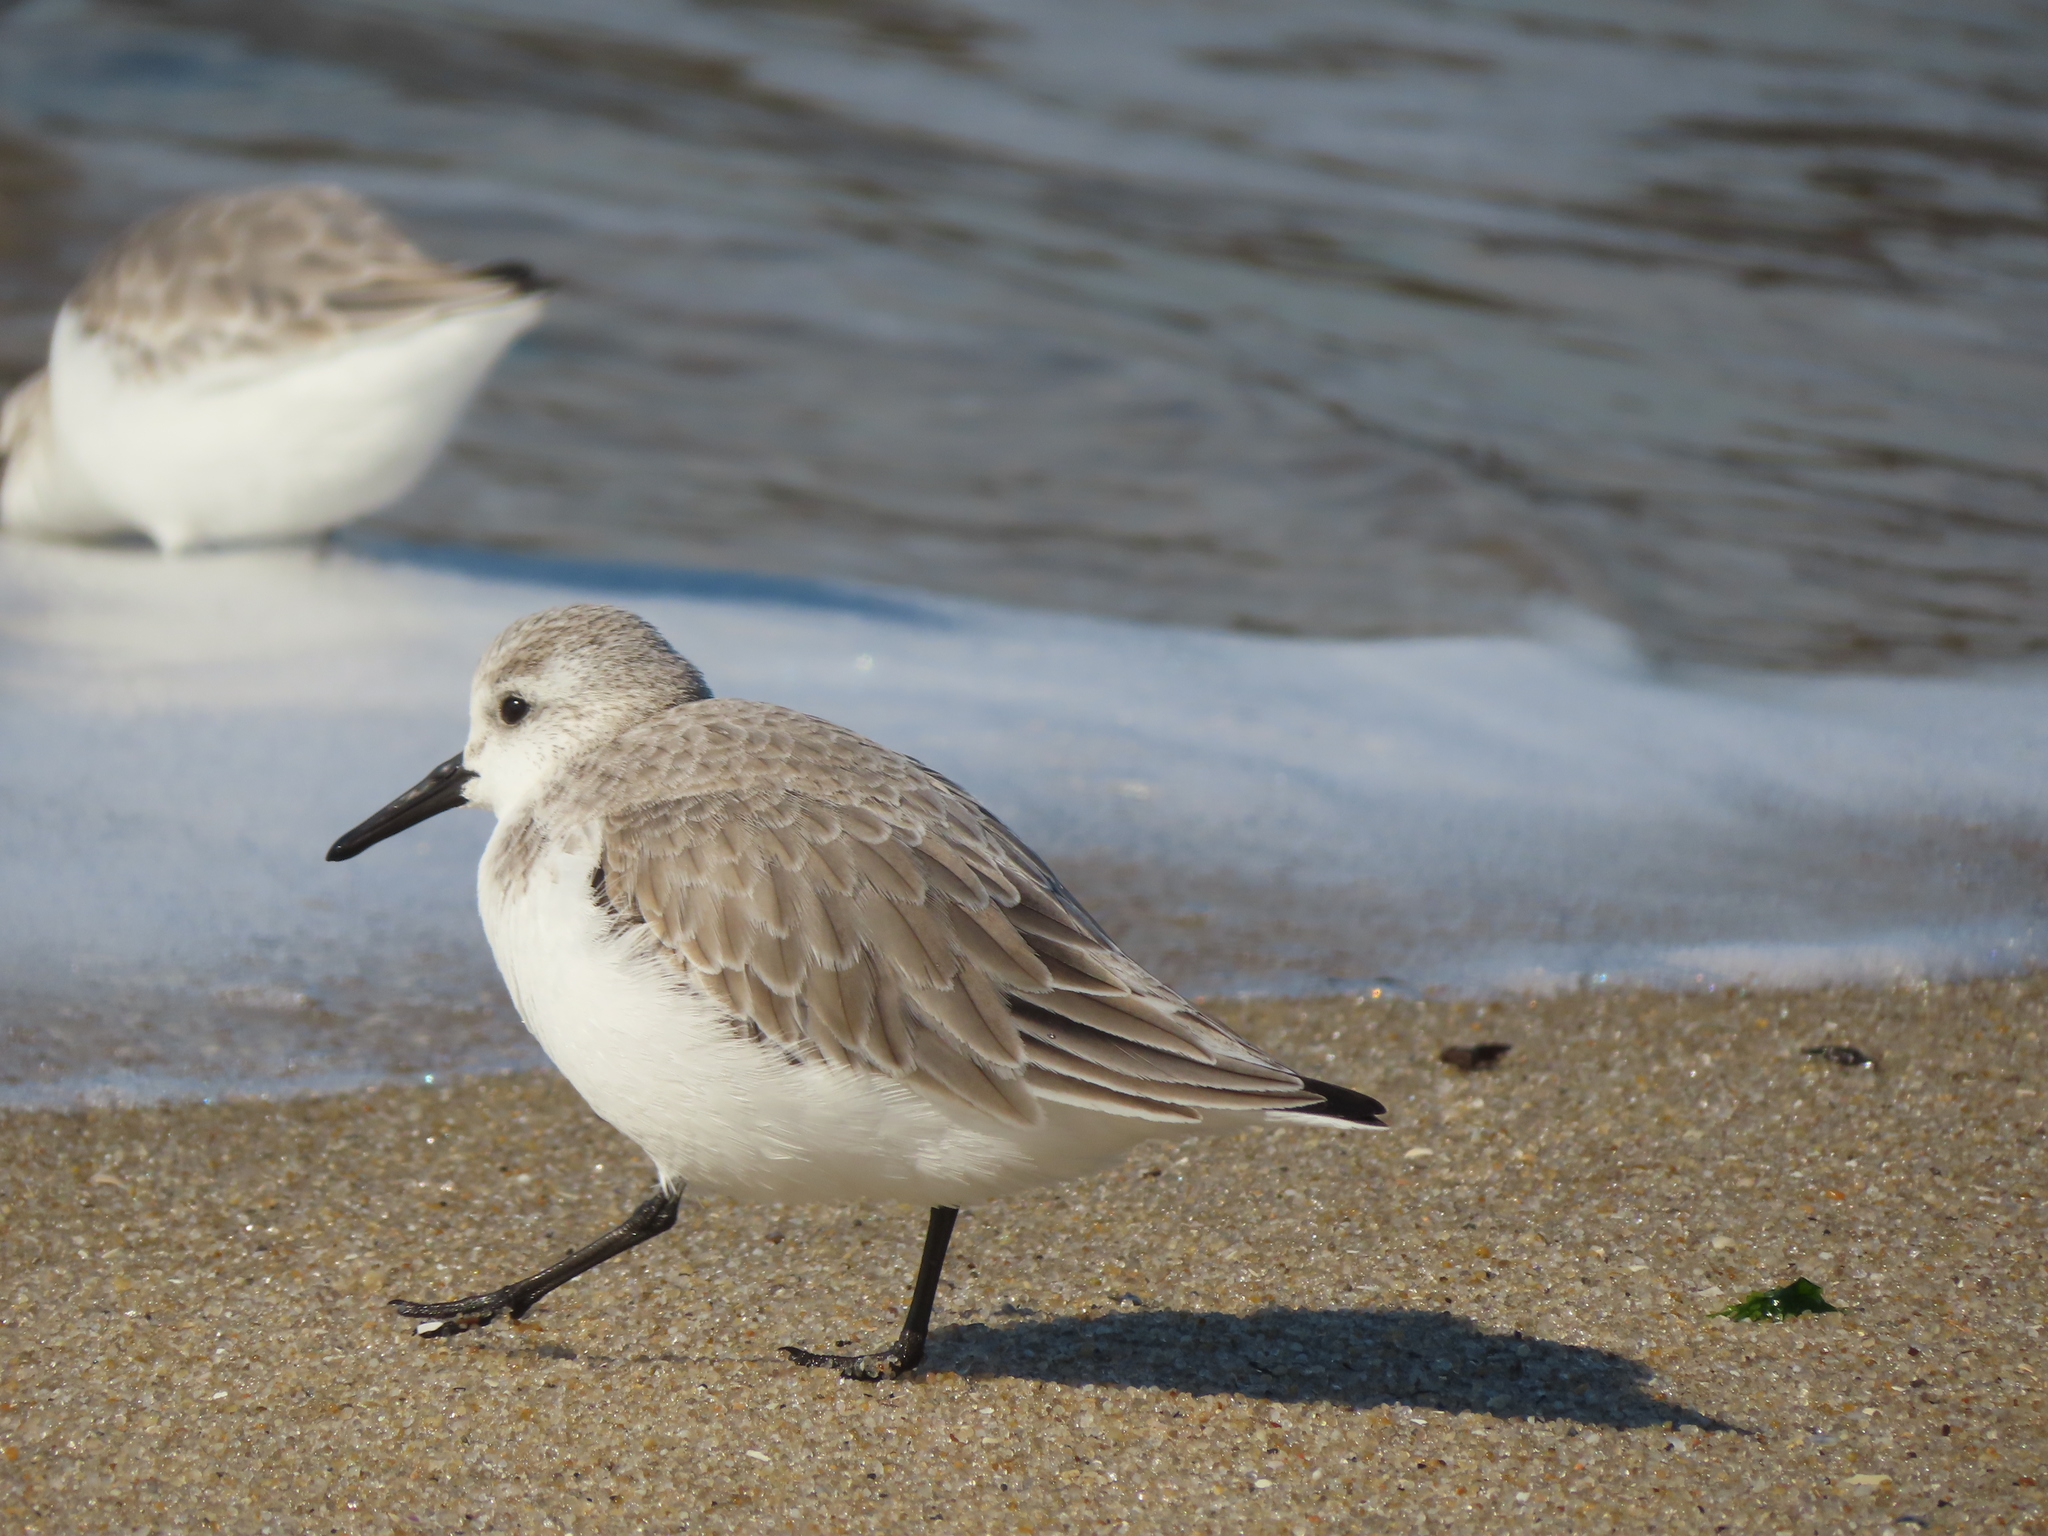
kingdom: Animalia
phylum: Chordata
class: Aves
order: Charadriiformes
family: Scolopacidae
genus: Calidris
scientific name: Calidris alba
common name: Sanderling
